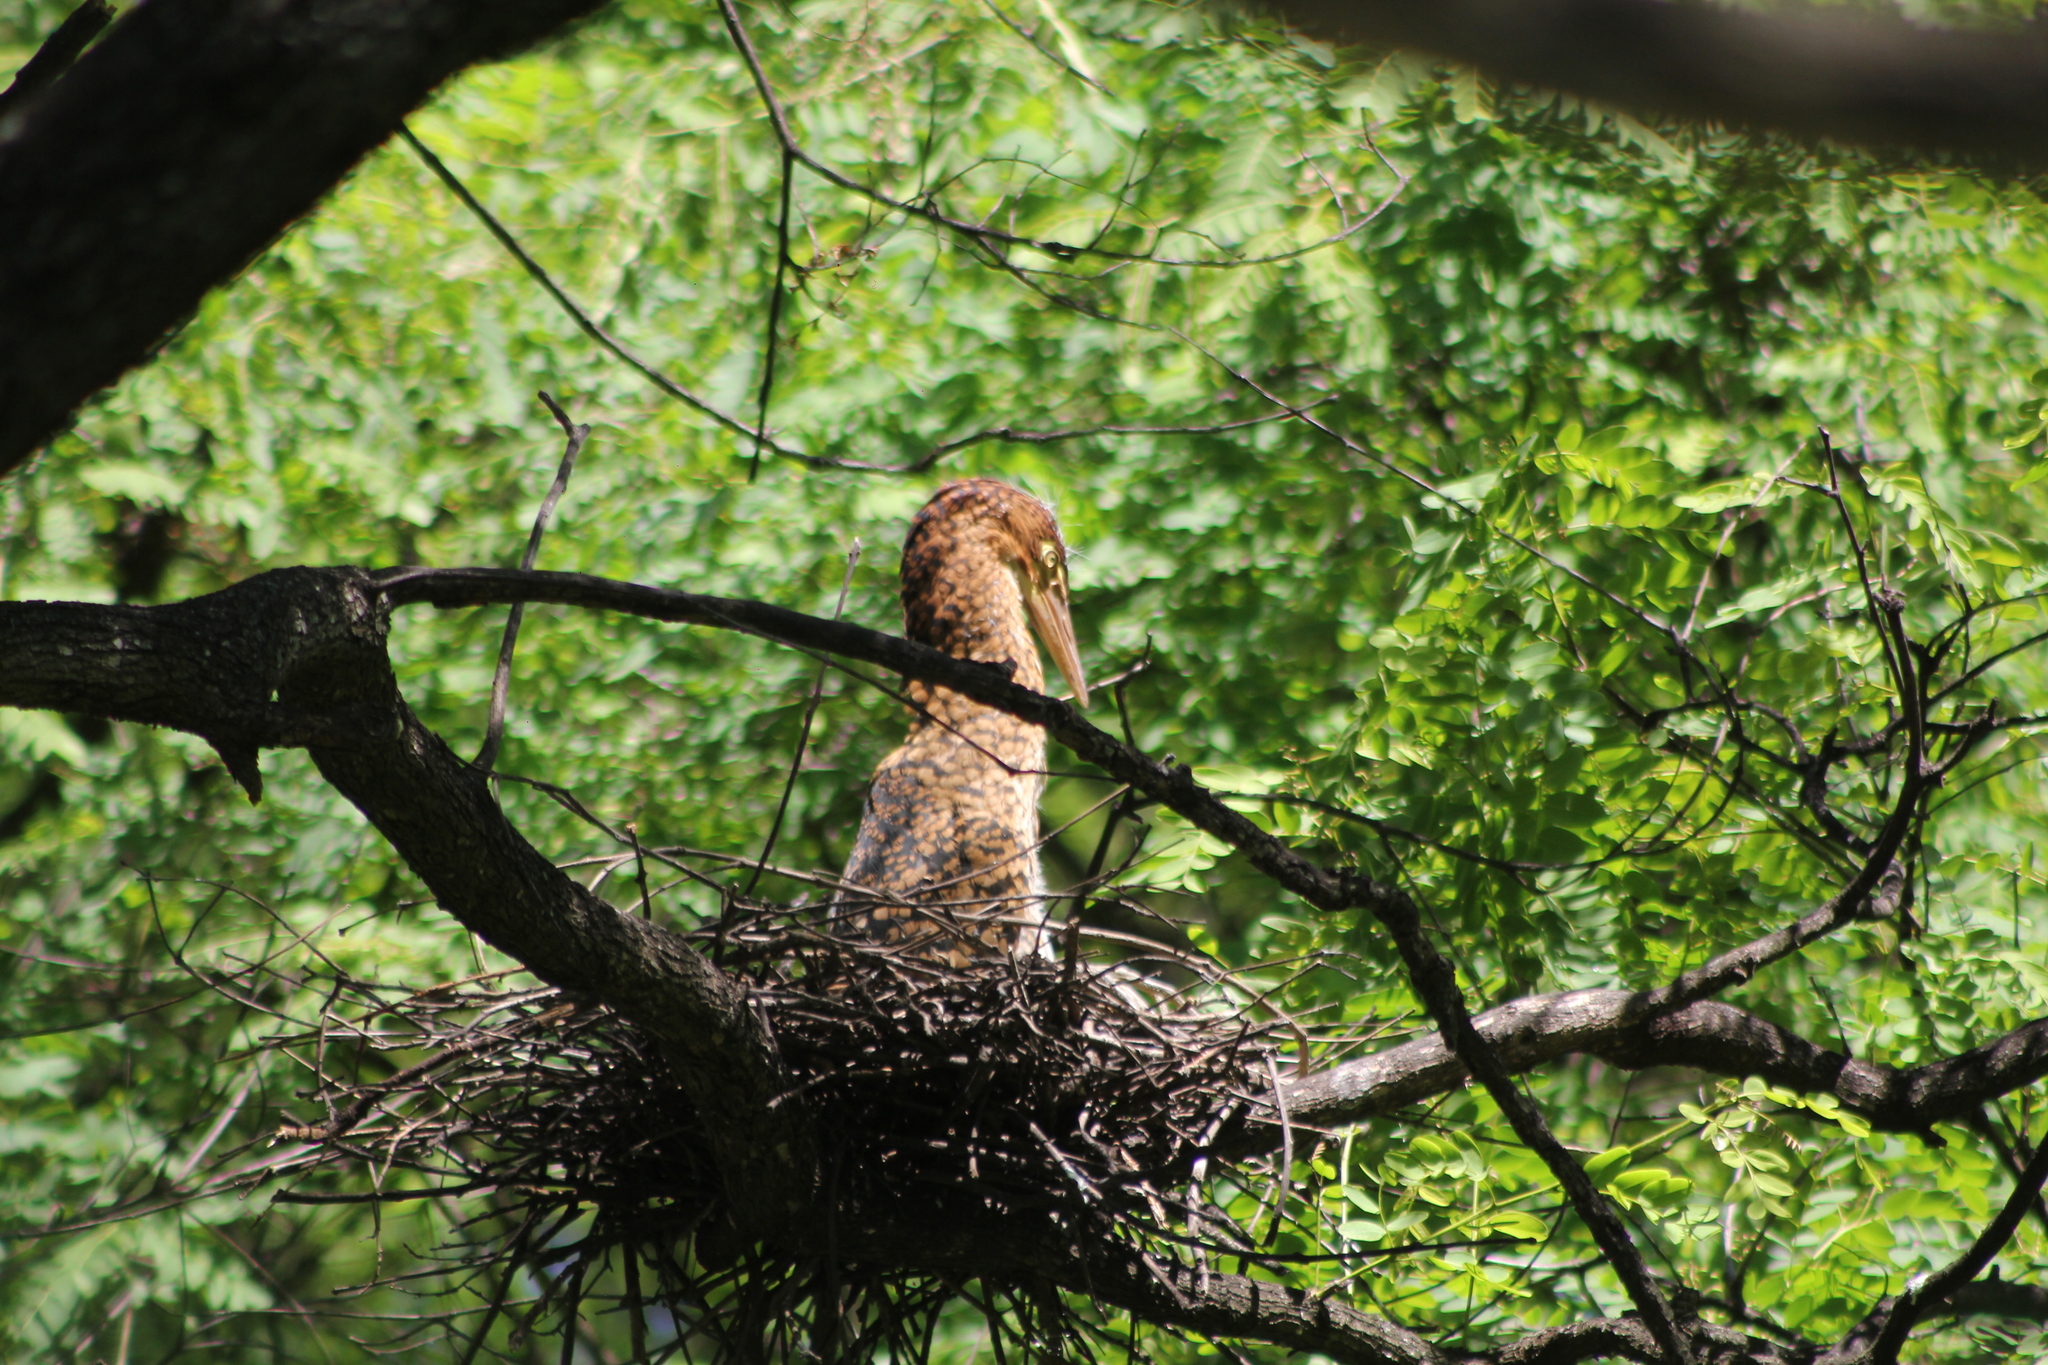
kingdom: Animalia
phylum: Chordata
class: Aves
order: Pelecaniformes
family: Ardeidae
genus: Tigrisoma
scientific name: Tigrisoma lineatum
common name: Rufescent tiger-heron
